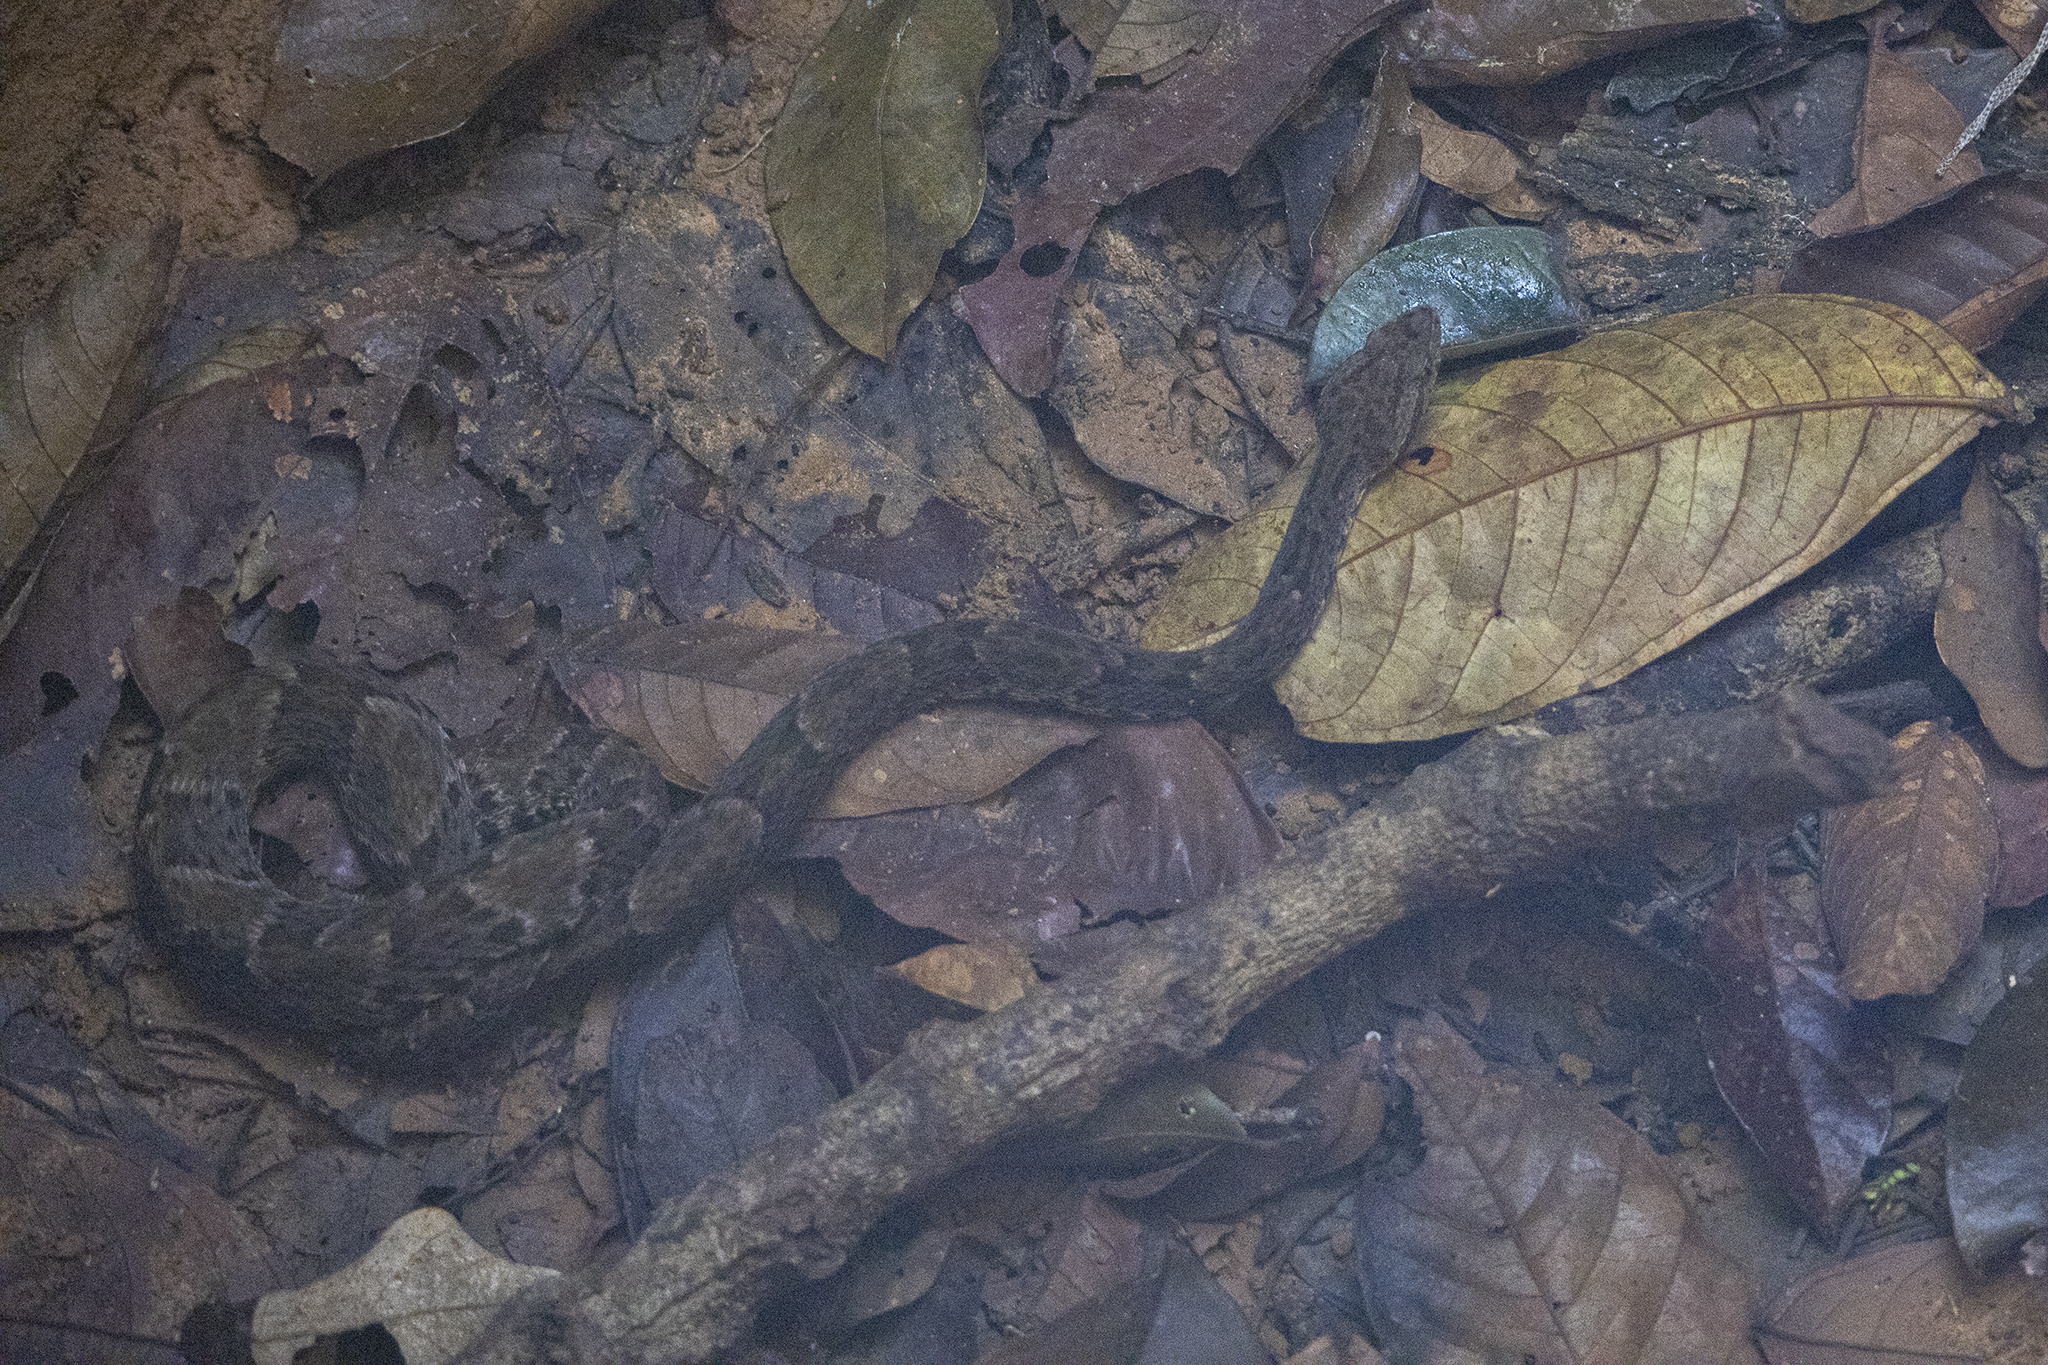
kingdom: Animalia
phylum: Chordata
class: Squamata
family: Viperidae
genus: Bothrops
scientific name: Bothrops atrox
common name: Common lancehead
